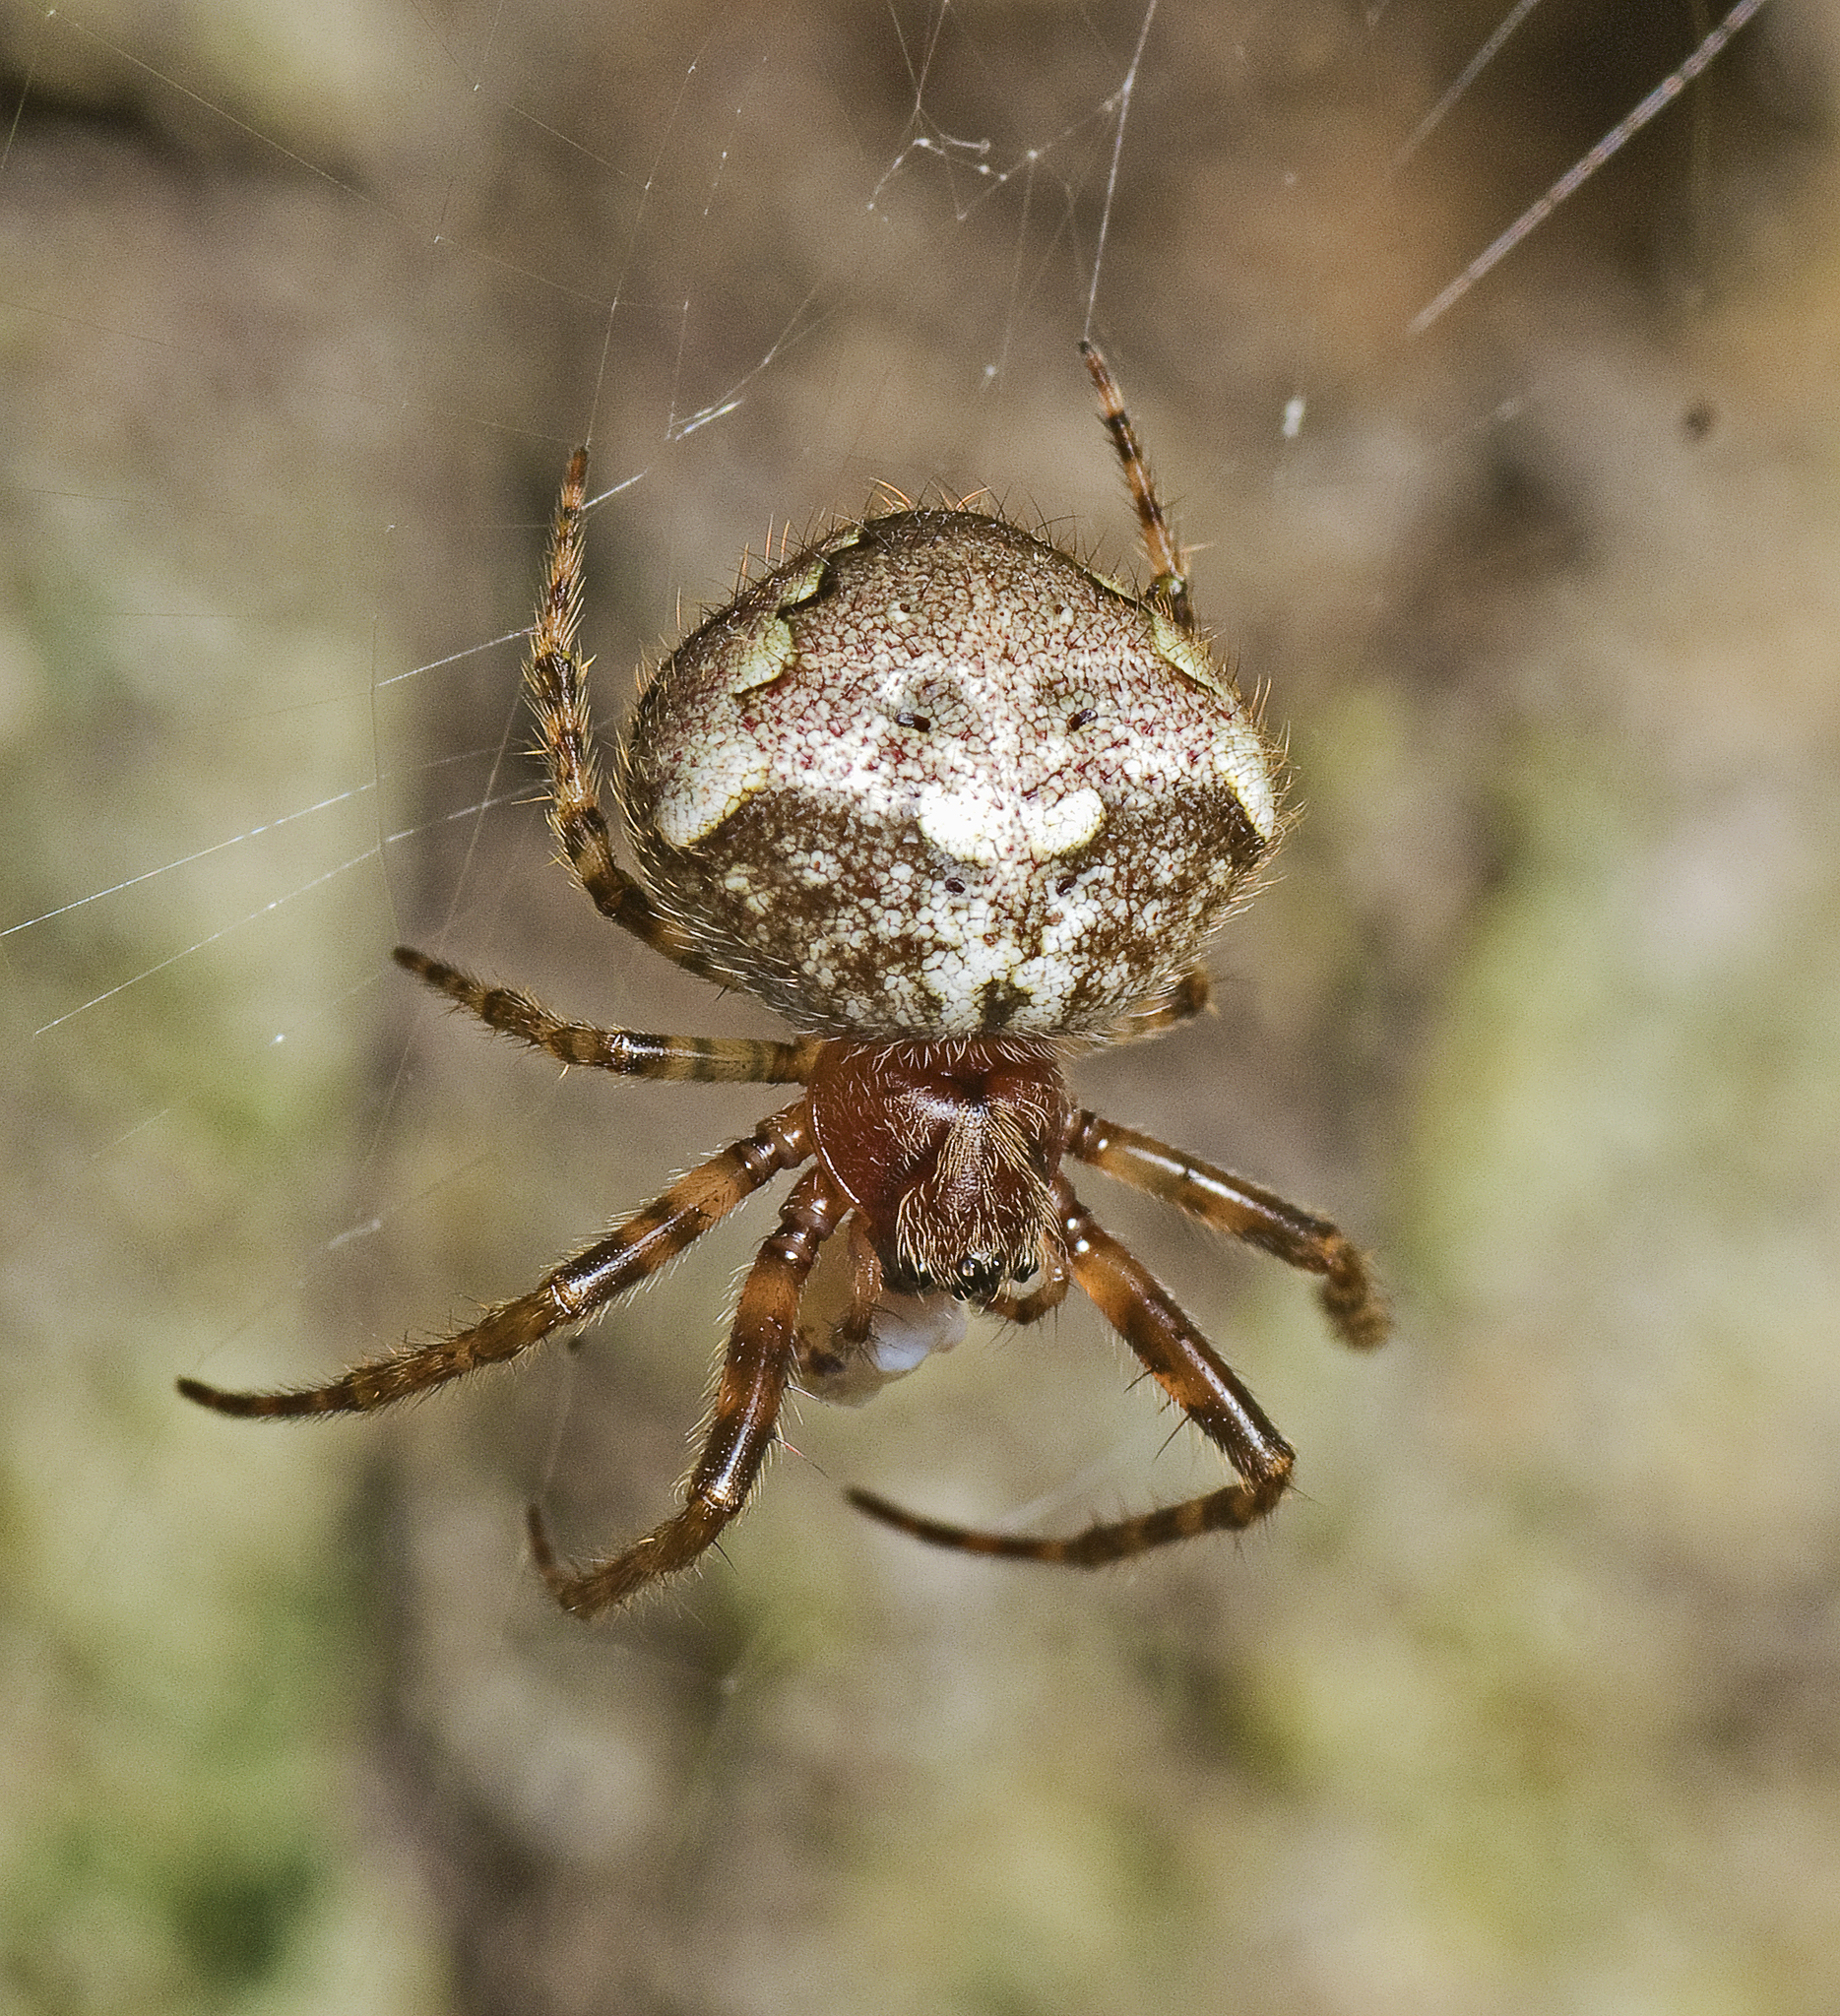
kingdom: Animalia
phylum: Arthropoda
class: Arachnida
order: Araneae
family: Araneidae
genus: Telaprocera
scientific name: Telaprocera maudae
